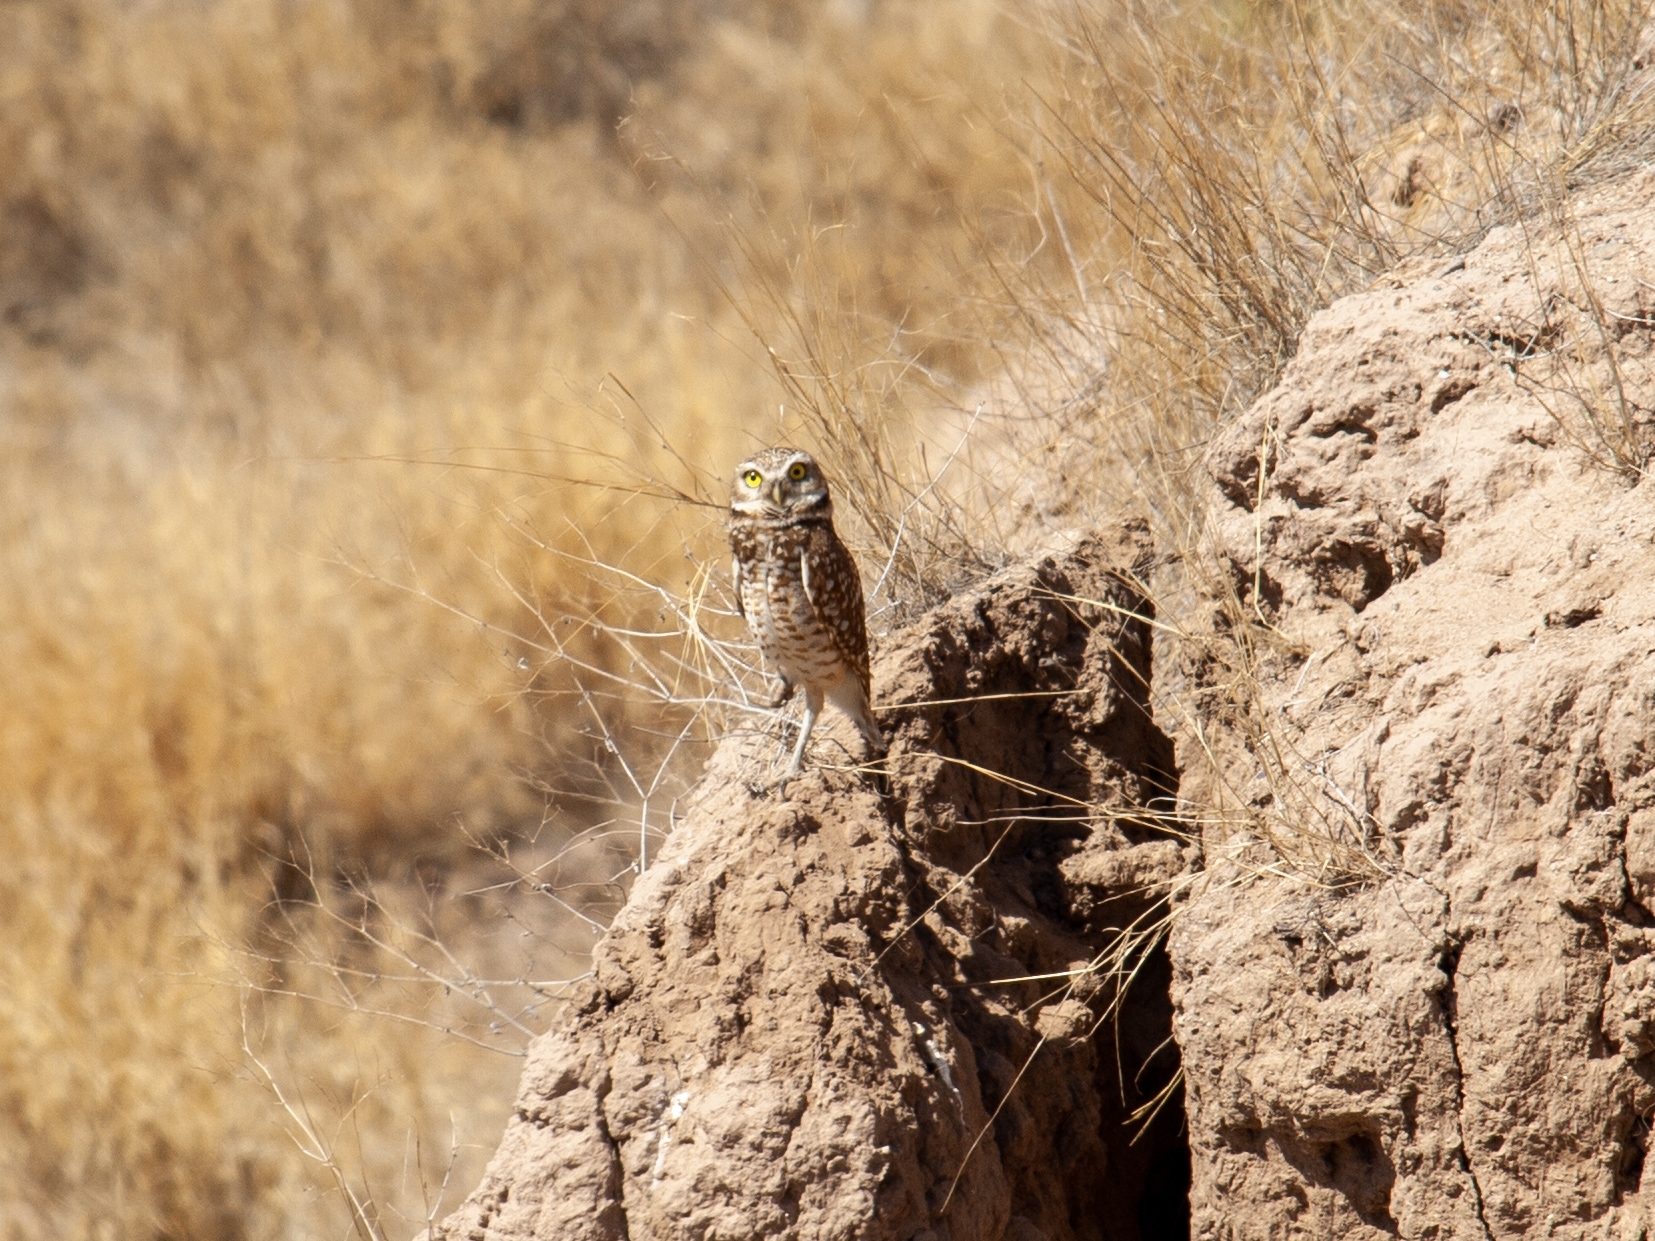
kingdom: Animalia
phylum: Chordata
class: Aves
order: Strigiformes
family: Strigidae
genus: Athene
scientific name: Athene cunicularia
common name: Burrowing owl
